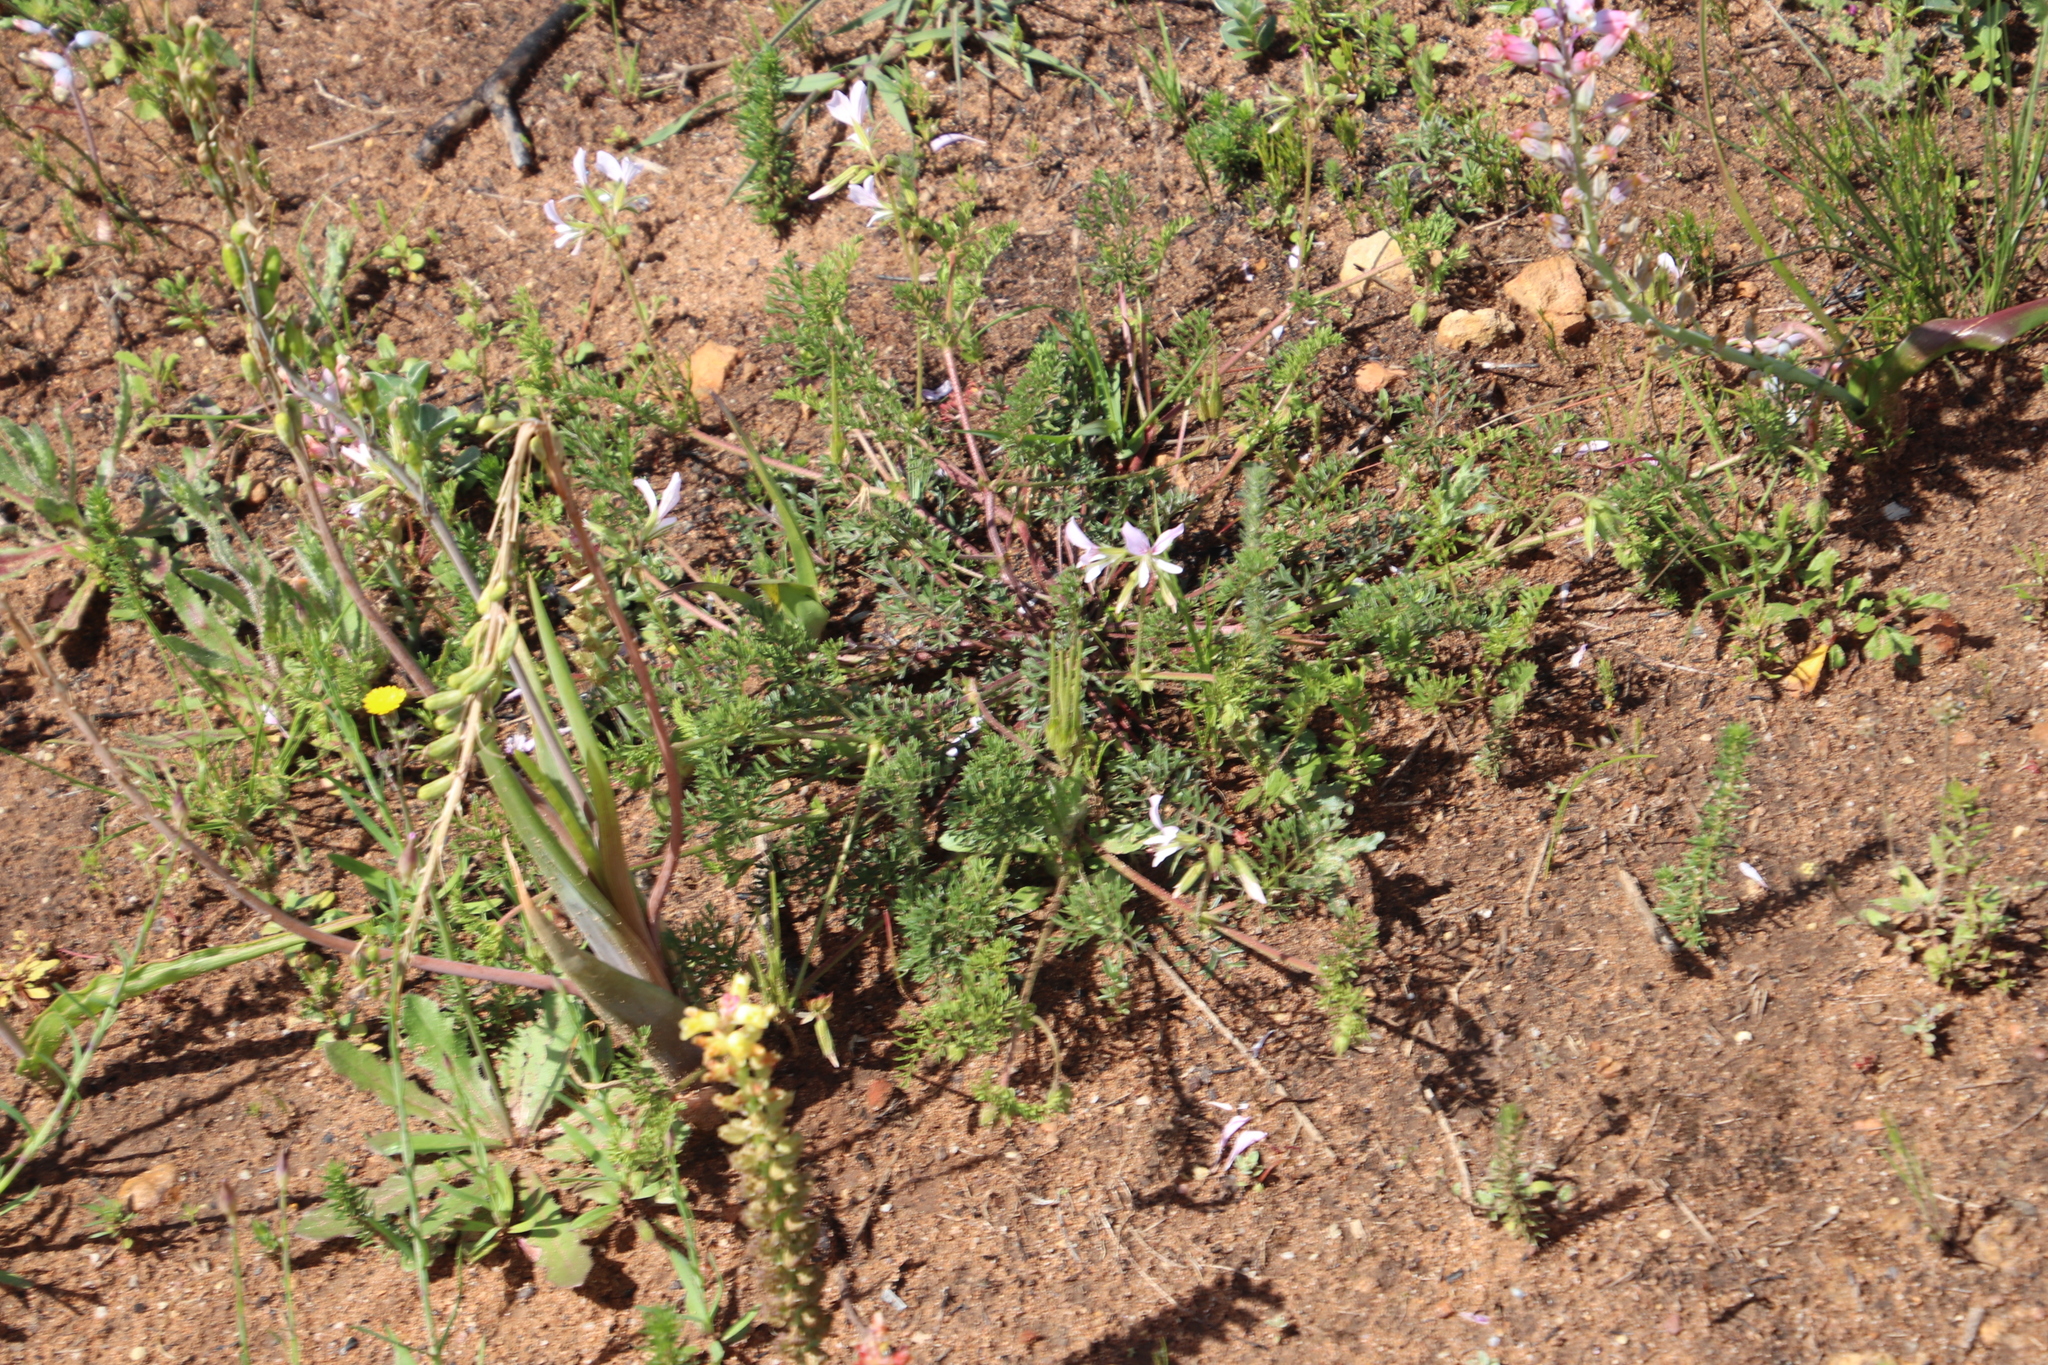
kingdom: Plantae
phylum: Tracheophyta
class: Magnoliopsida
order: Geraniales
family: Geraniaceae
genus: Pelargonium
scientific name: Pelargonium myrrhifolium
